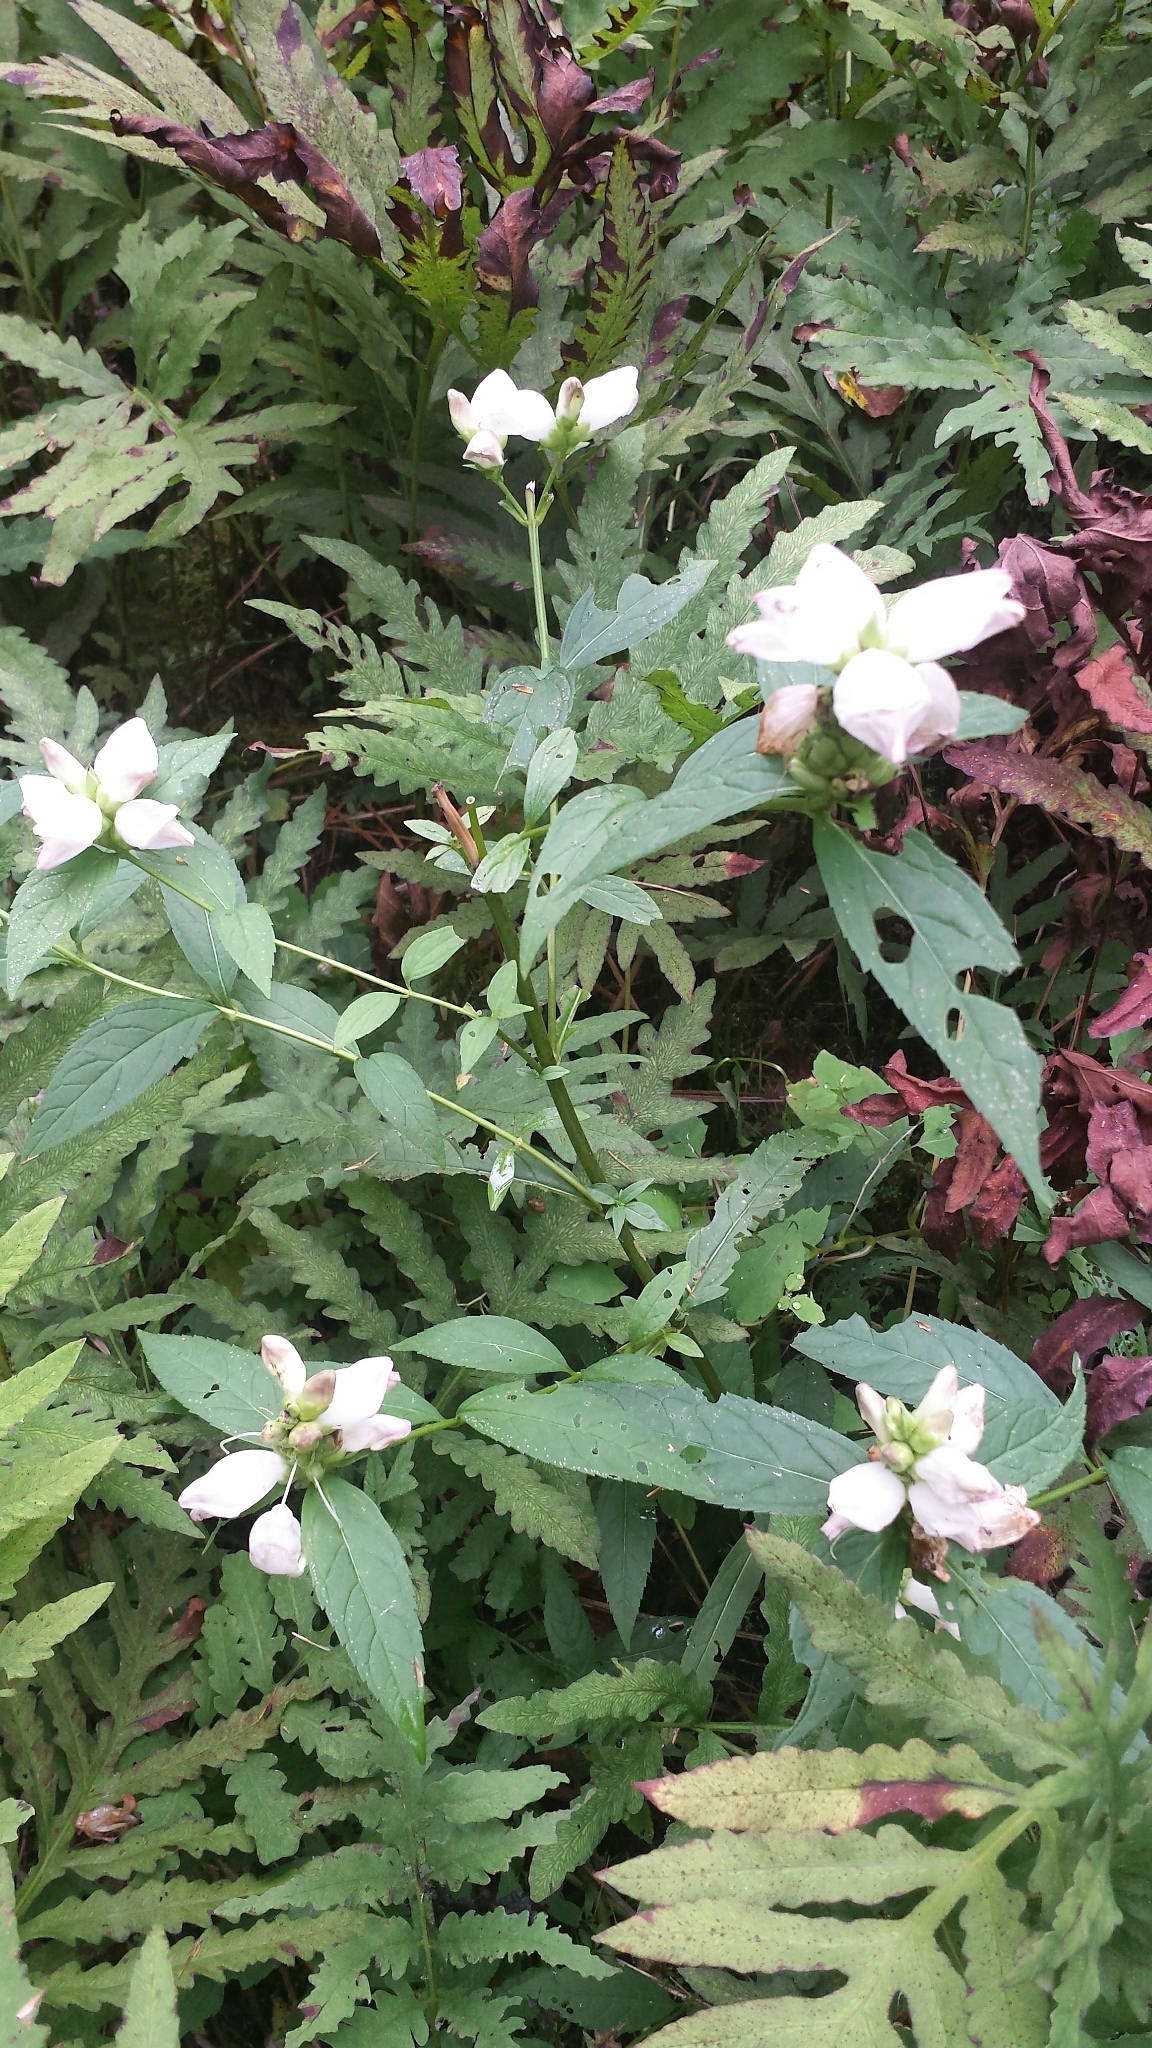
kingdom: Plantae
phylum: Tracheophyta
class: Magnoliopsida
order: Lamiales
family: Plantaginaceae
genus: Chelone
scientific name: Chelone glabra
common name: Snakehead
